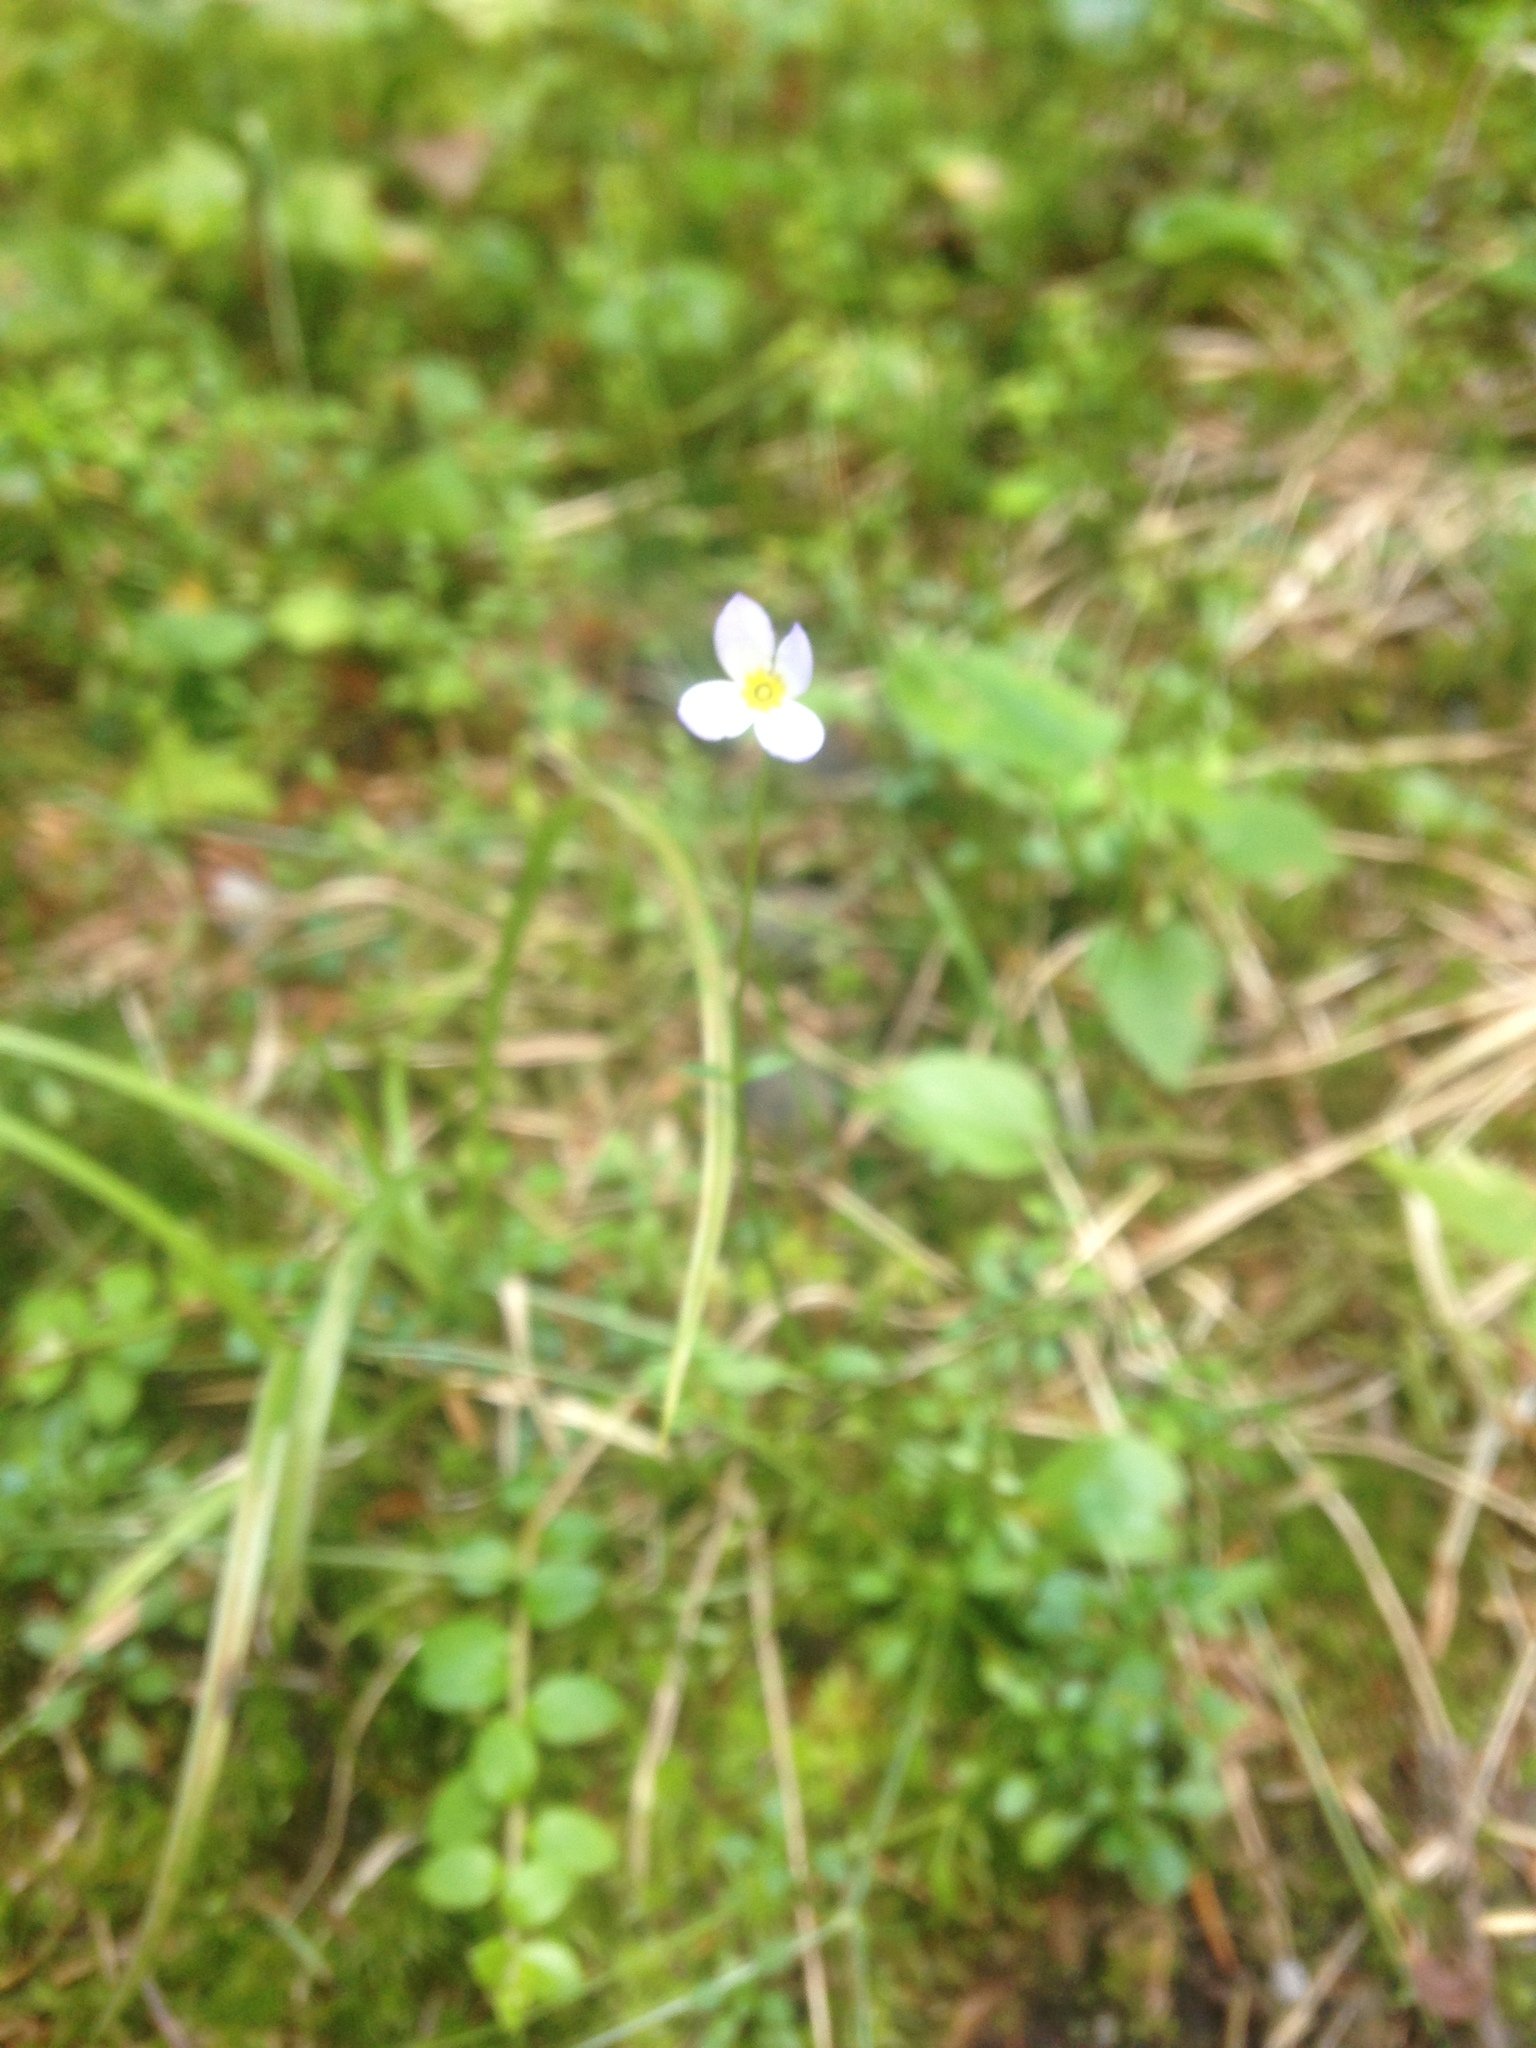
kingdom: Plantae
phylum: Tracheophyta
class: Magnoliopsida
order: Gentianales
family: Rubiaceae
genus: Houstonia
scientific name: Houstonia caerulea
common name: Bluets
